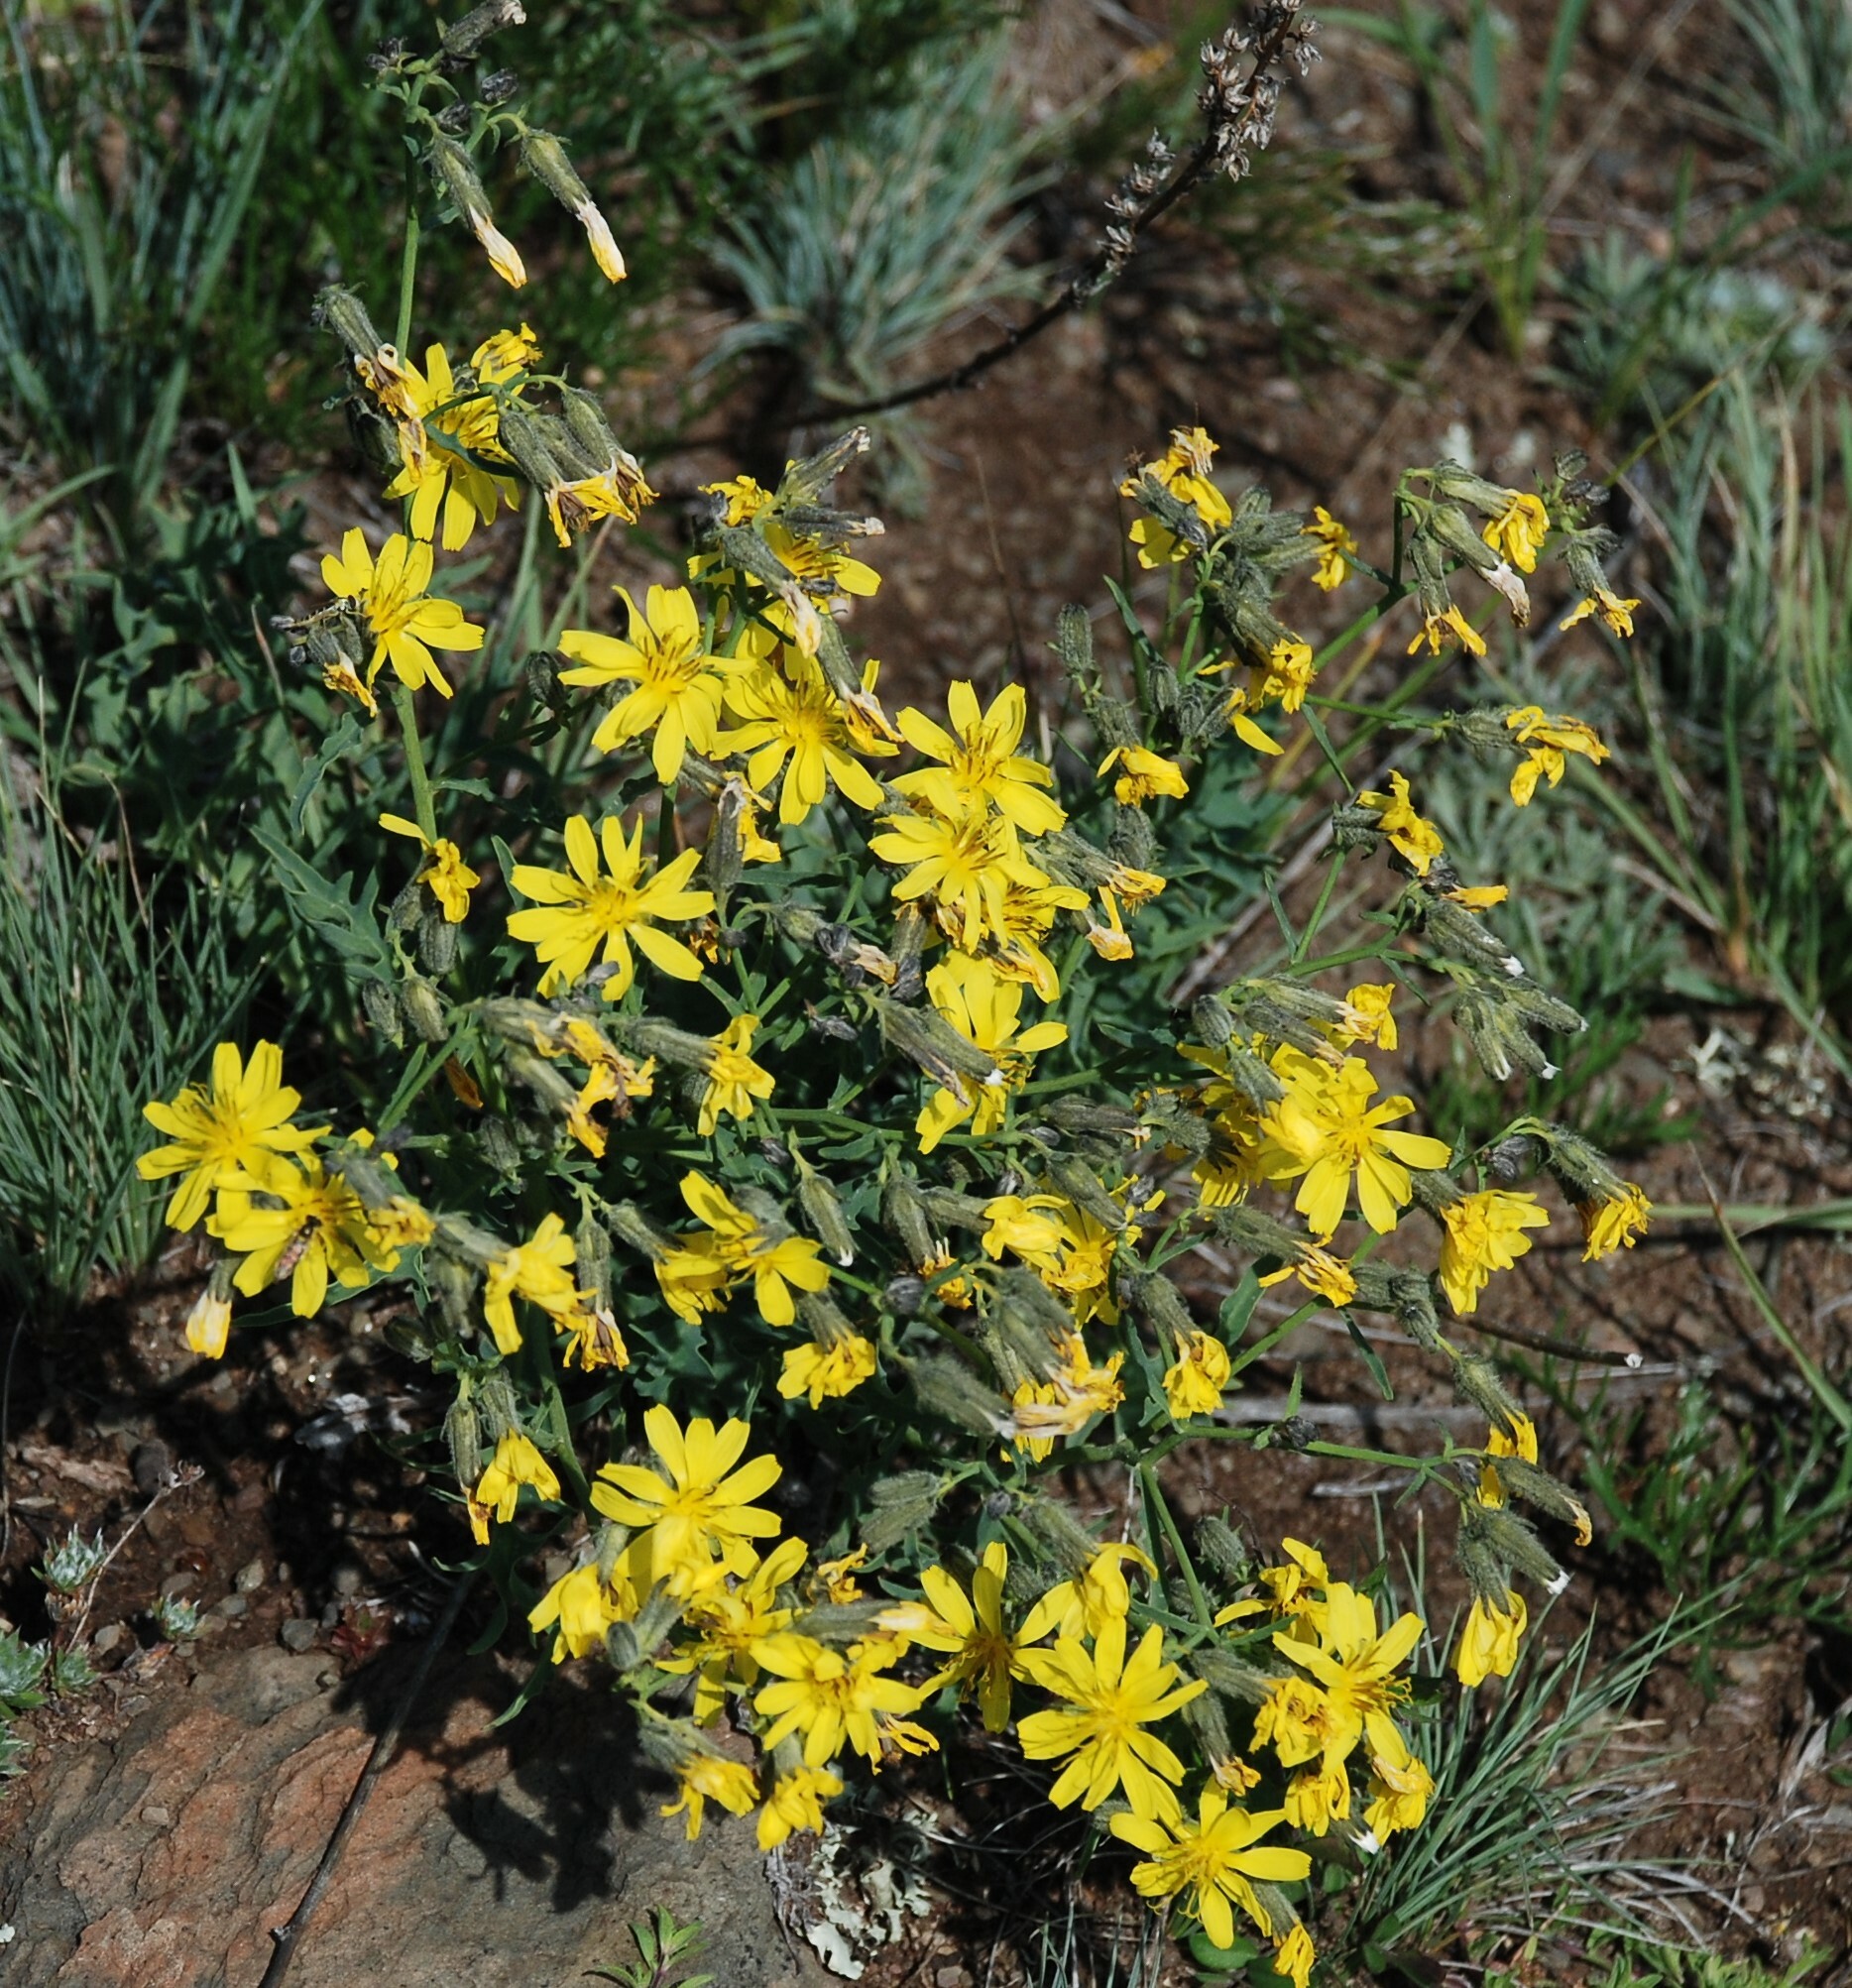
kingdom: Plantae
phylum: Tracheophyta
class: Magnoliopsida
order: Asterales
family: Asteraceae
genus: Crepidiastrum
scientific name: Crepidiastrum tenuifolium
